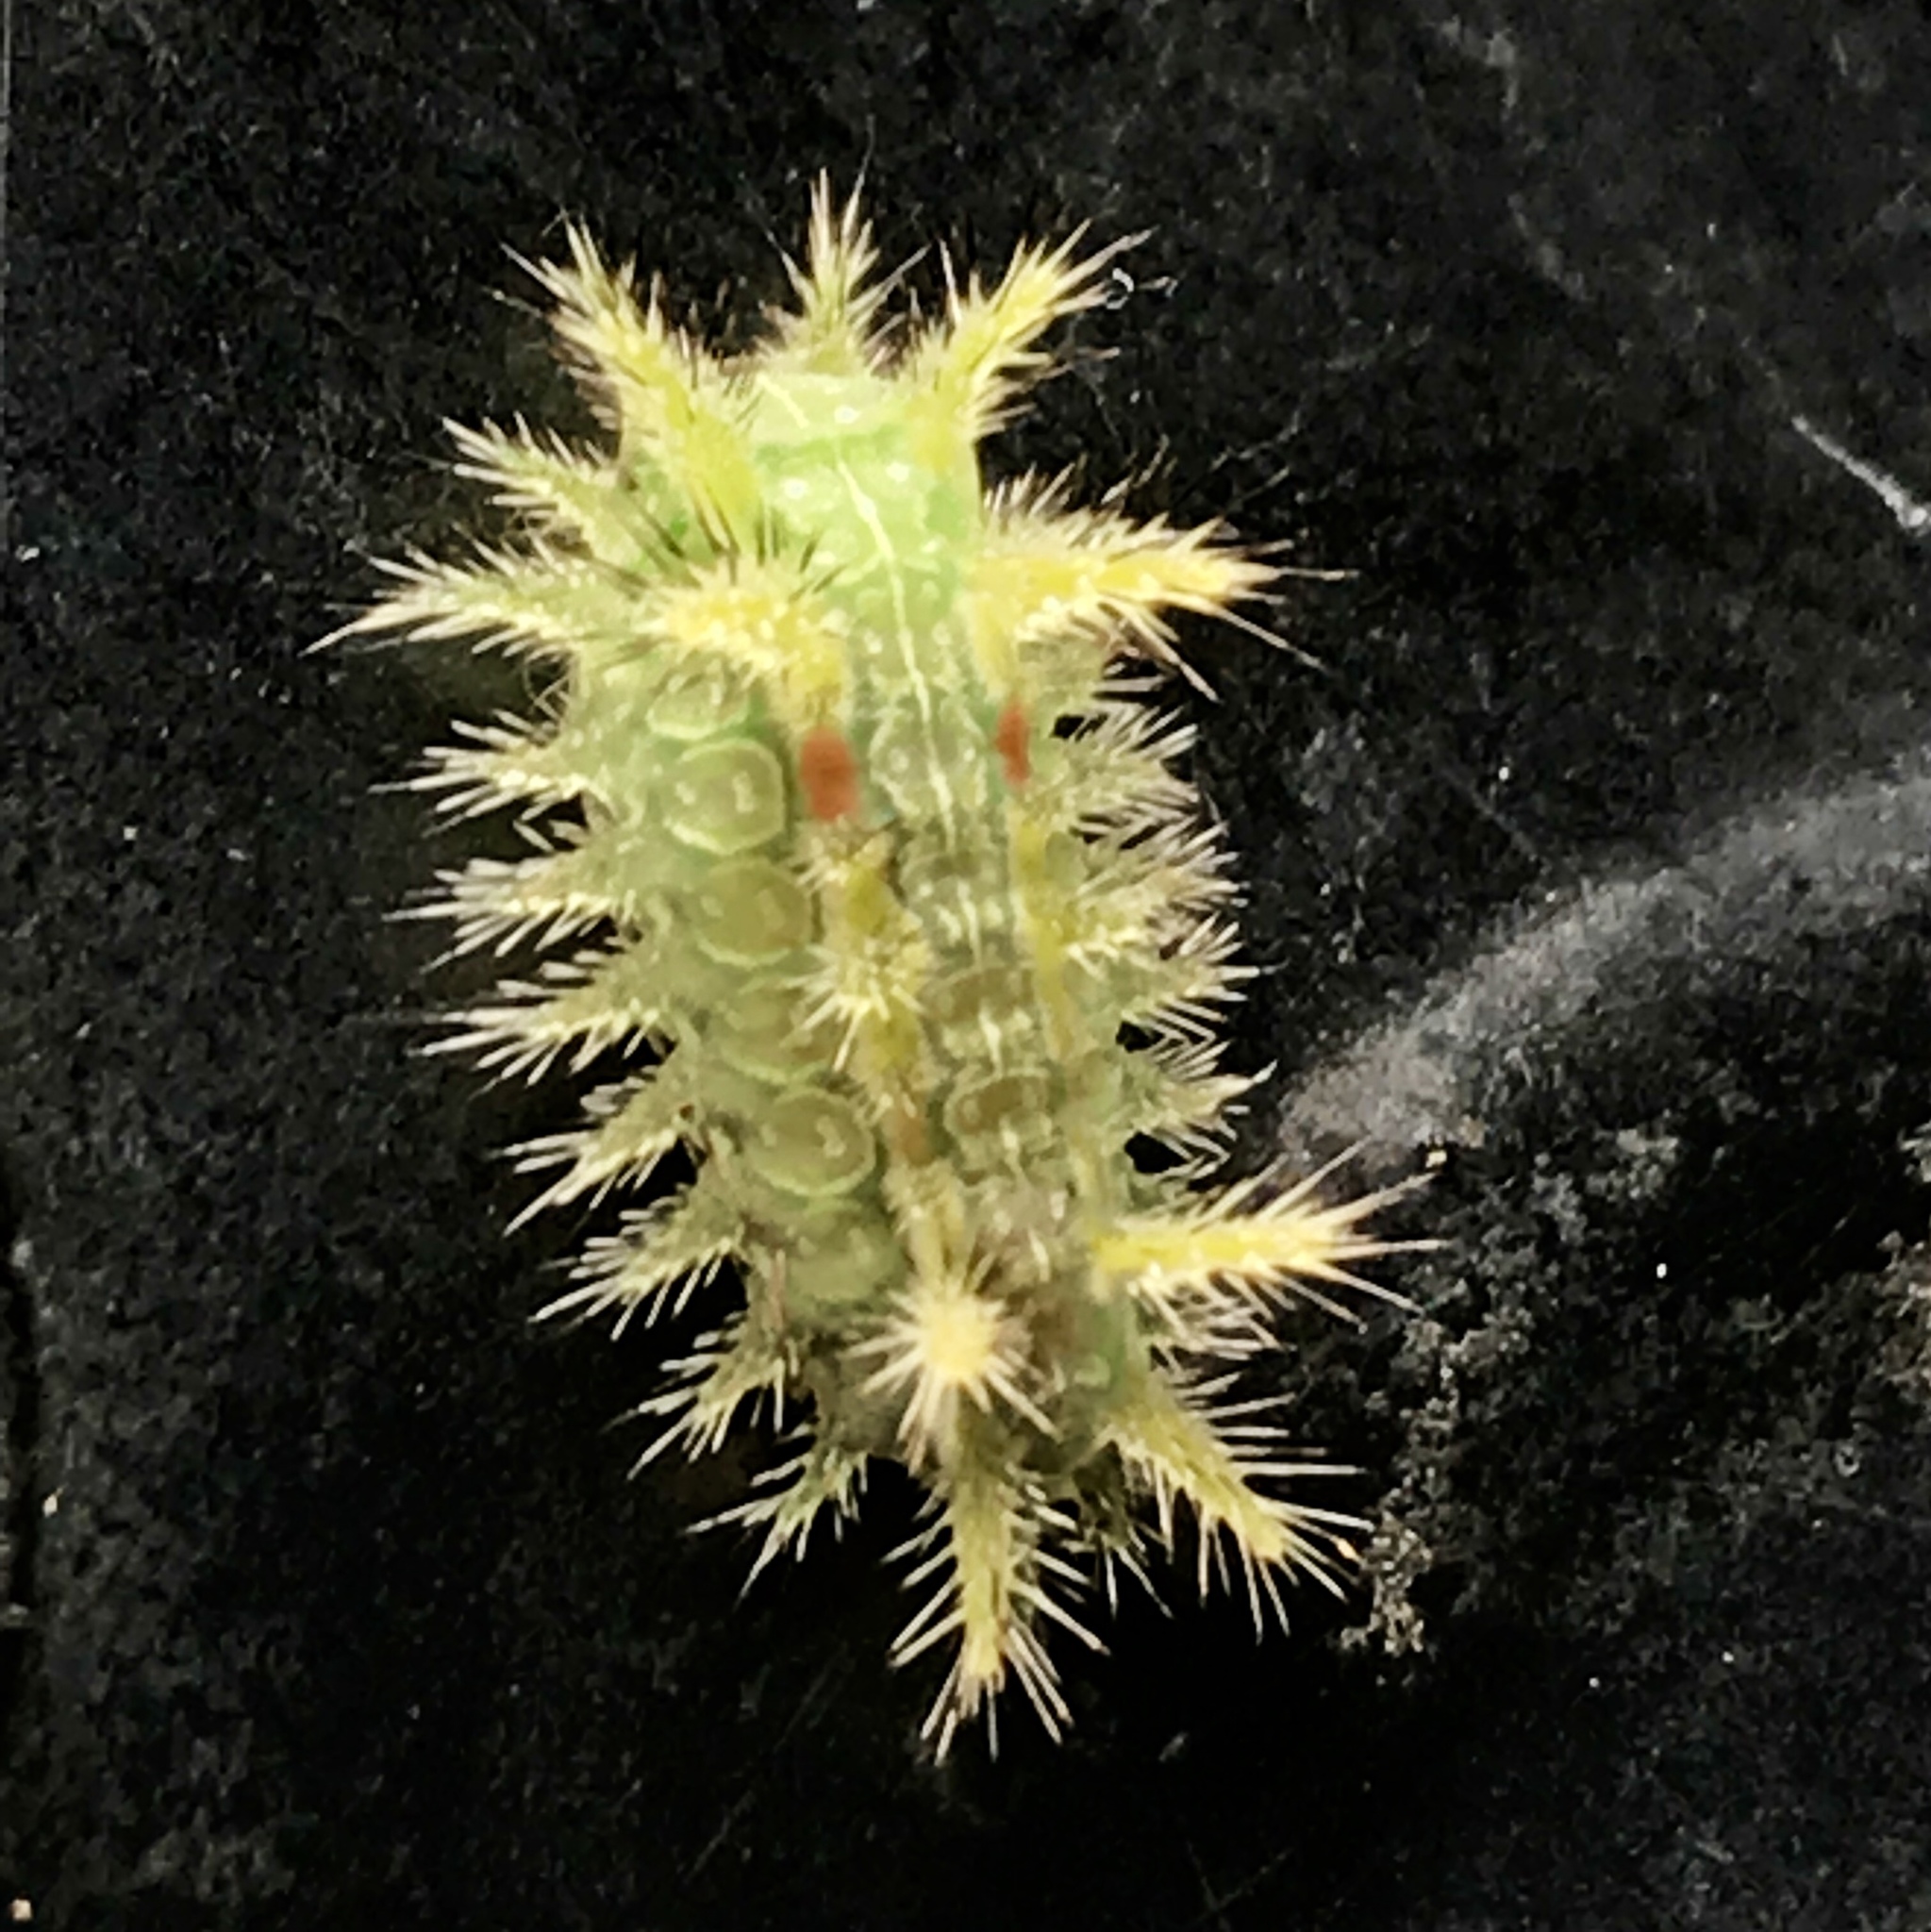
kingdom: Animalia
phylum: Arthropoda
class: Insecta
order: Lepidoptera
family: Limacodidae
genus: Euclea
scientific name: Euclea delphinii
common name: Spiny oak-slug moth
